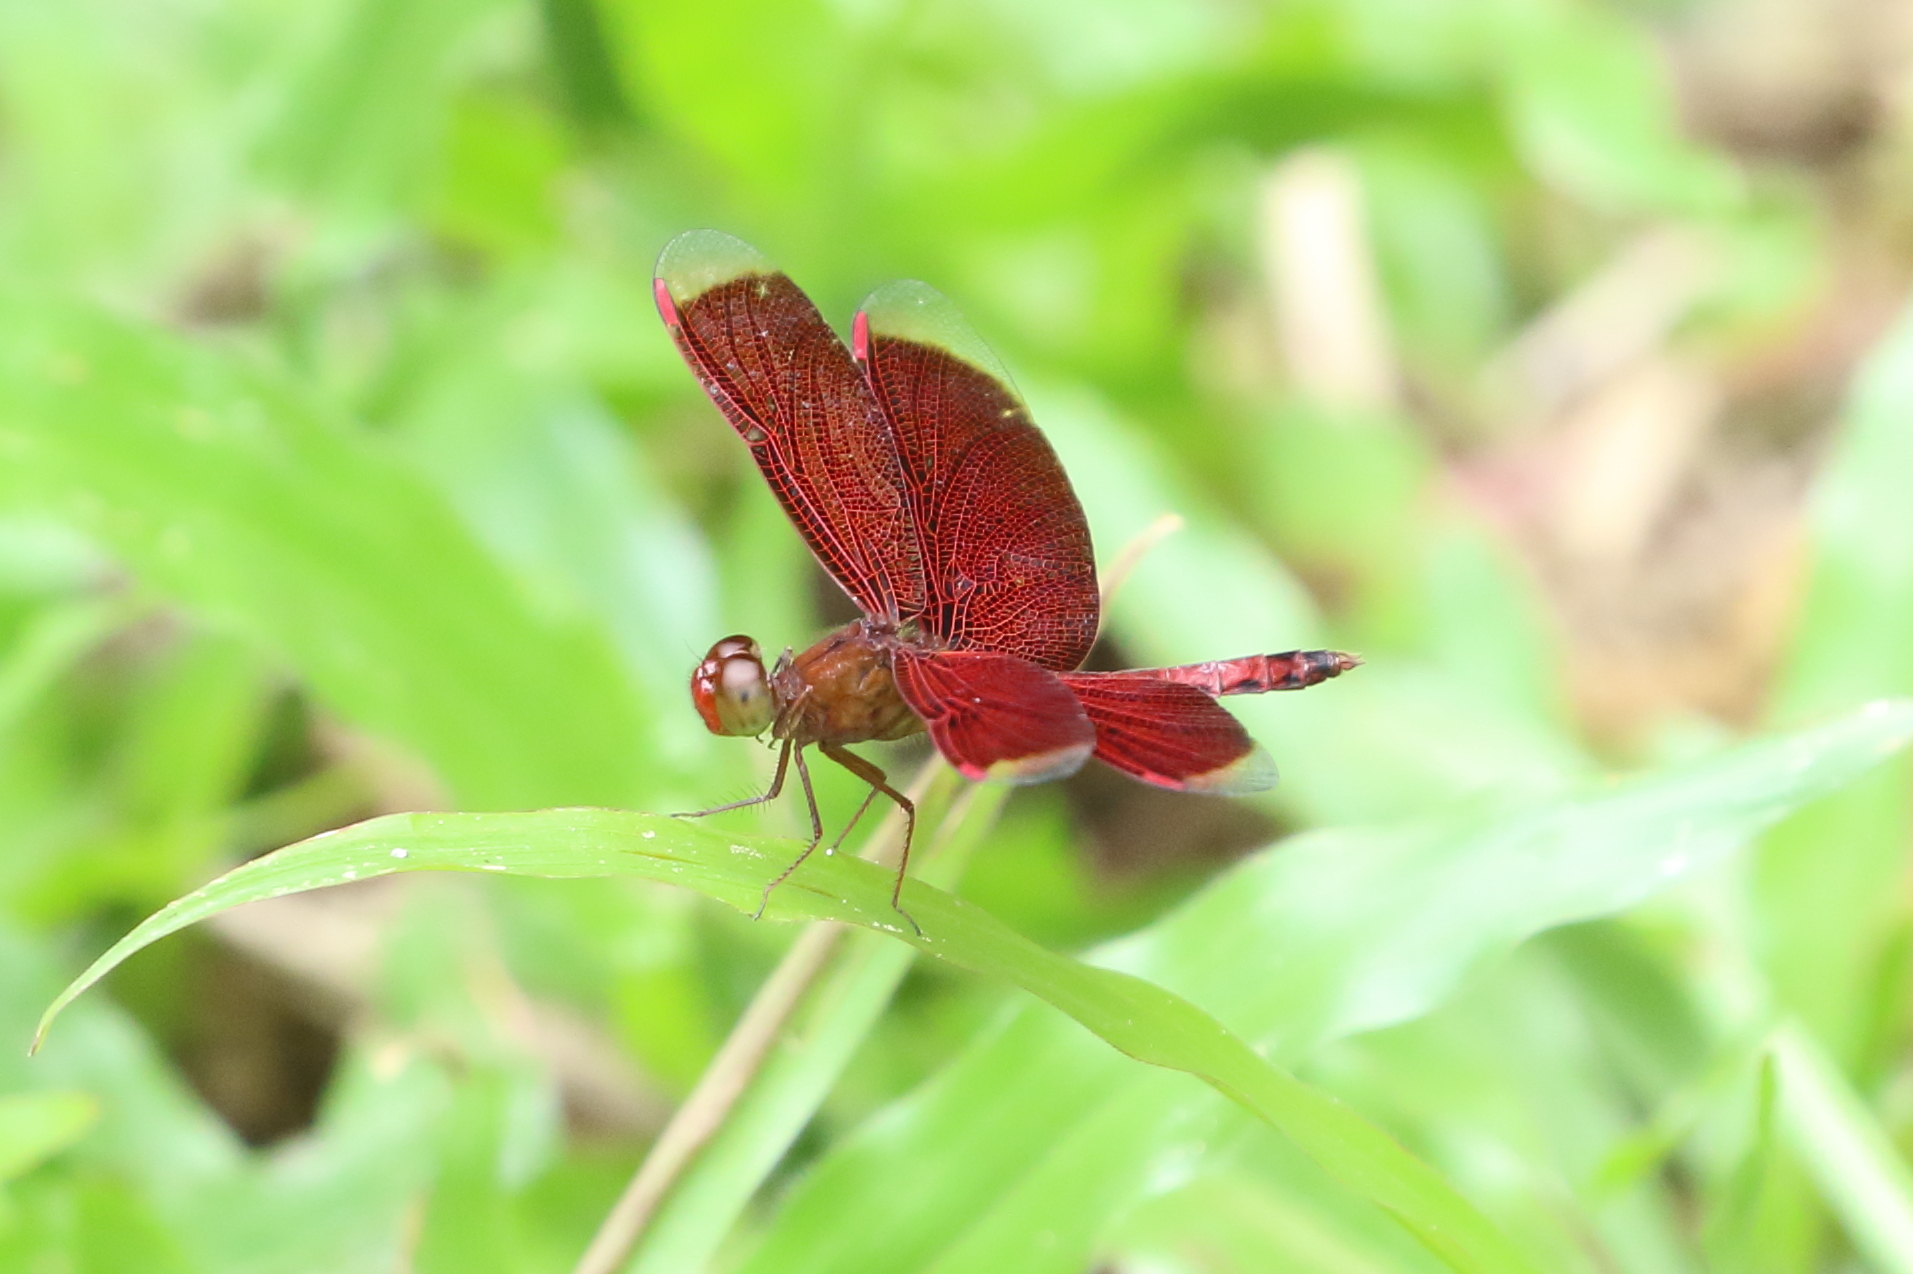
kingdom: Animalia
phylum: Arthropoda
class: Insecta
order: Odonata
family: Libellulidae
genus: Neurothemis
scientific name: Neurothemis fluctuans
